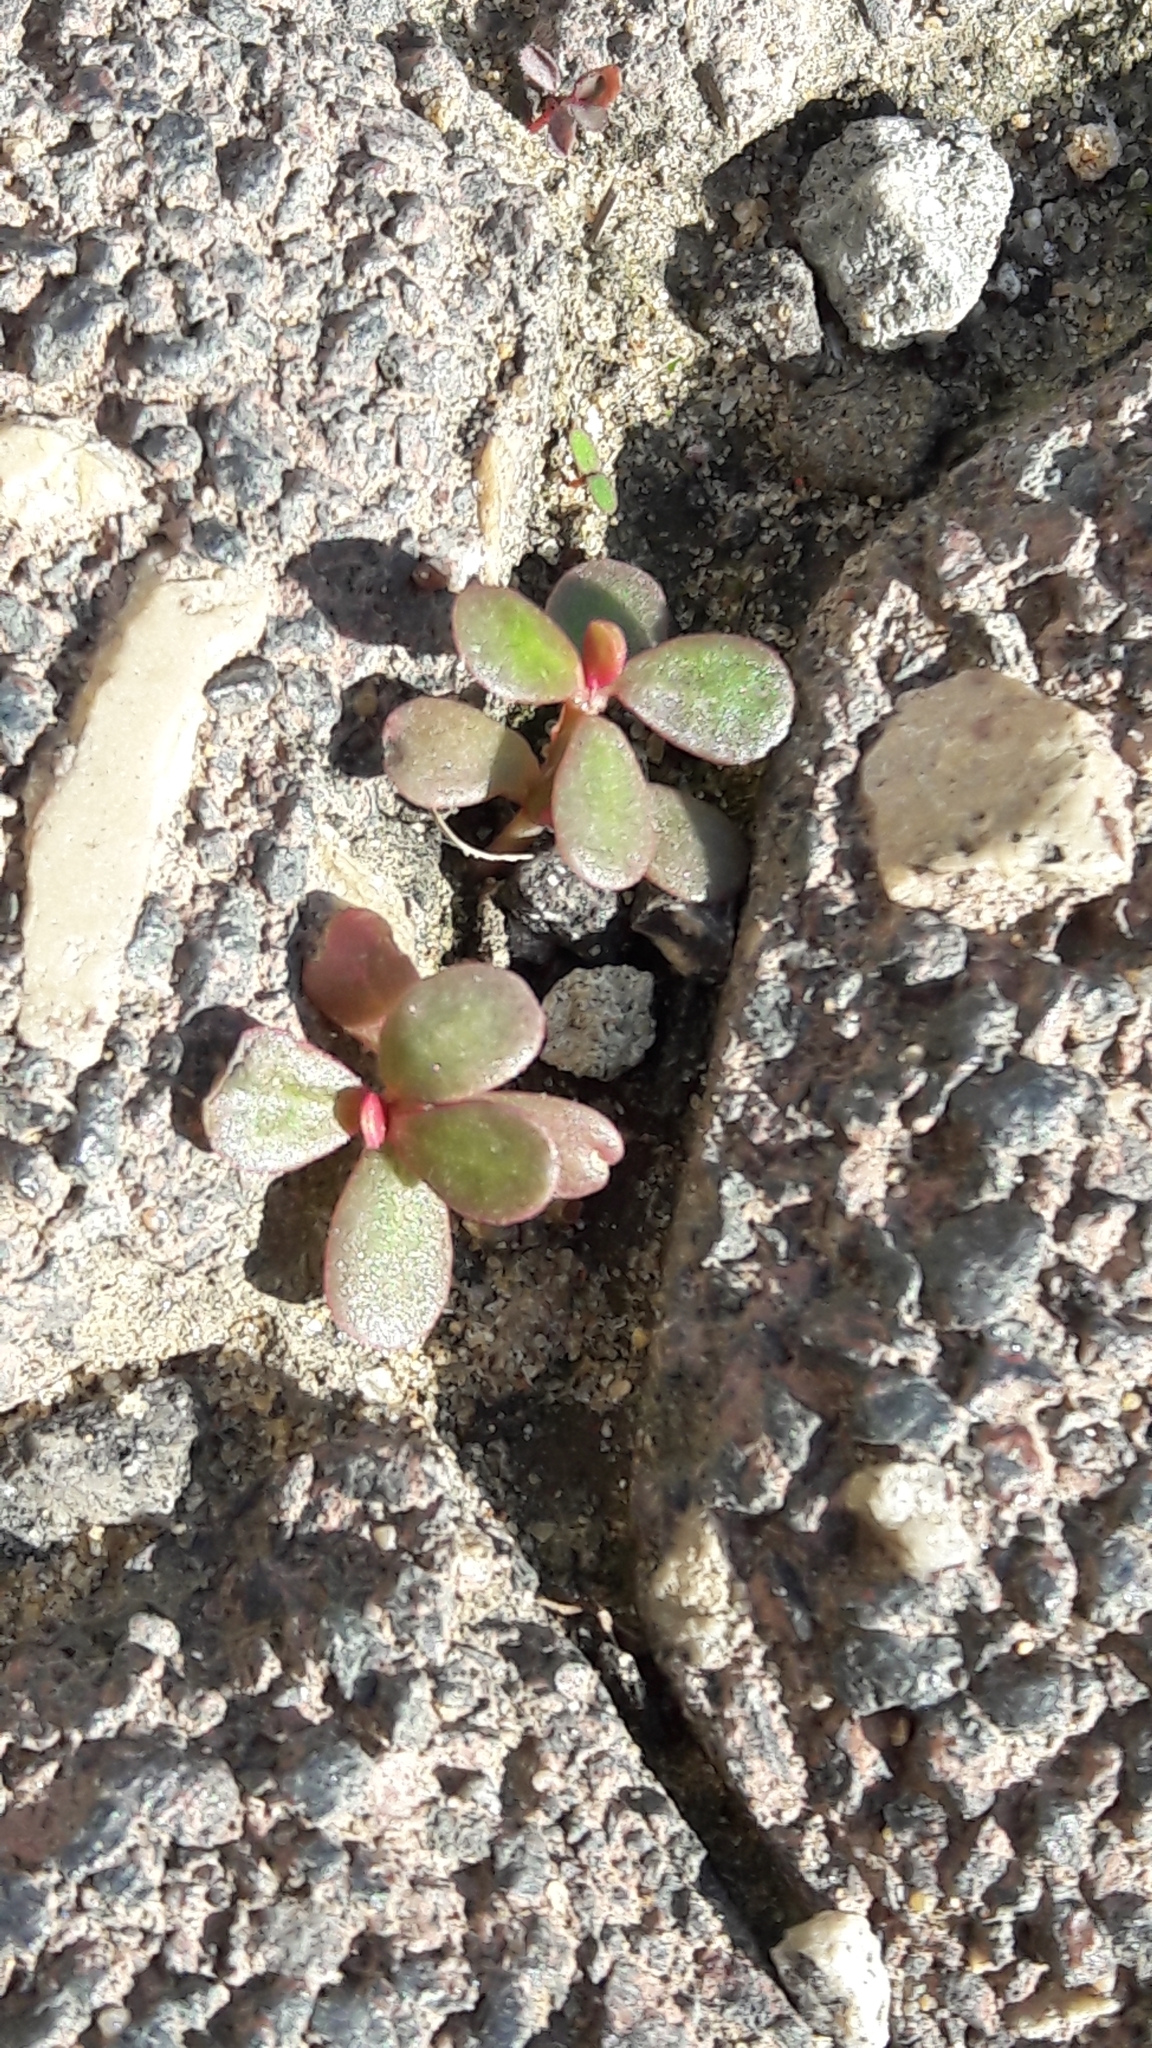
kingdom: Plantae
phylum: Tracheophyta
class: Magnoliopsida
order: Caryophyllales
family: Portulacaceae
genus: Portulaca
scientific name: Portulaca oleracea
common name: Common purslane
